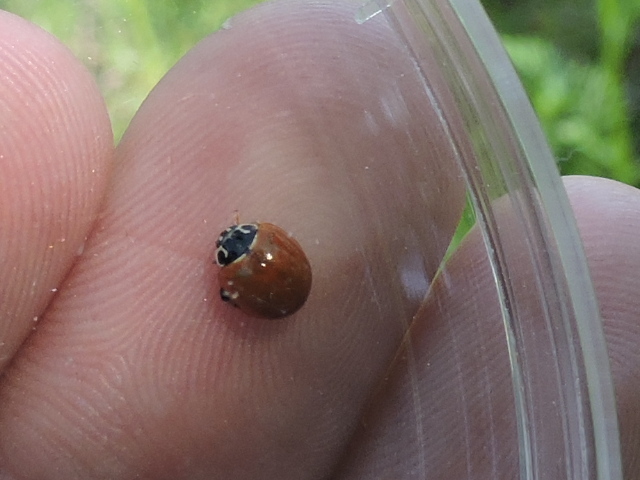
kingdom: Animalia
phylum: Arthropoda
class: Insecta
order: Coleoptera
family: Coccinellidae
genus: Cycloneda
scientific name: Cycloneda munda
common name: Polished lady beetle
